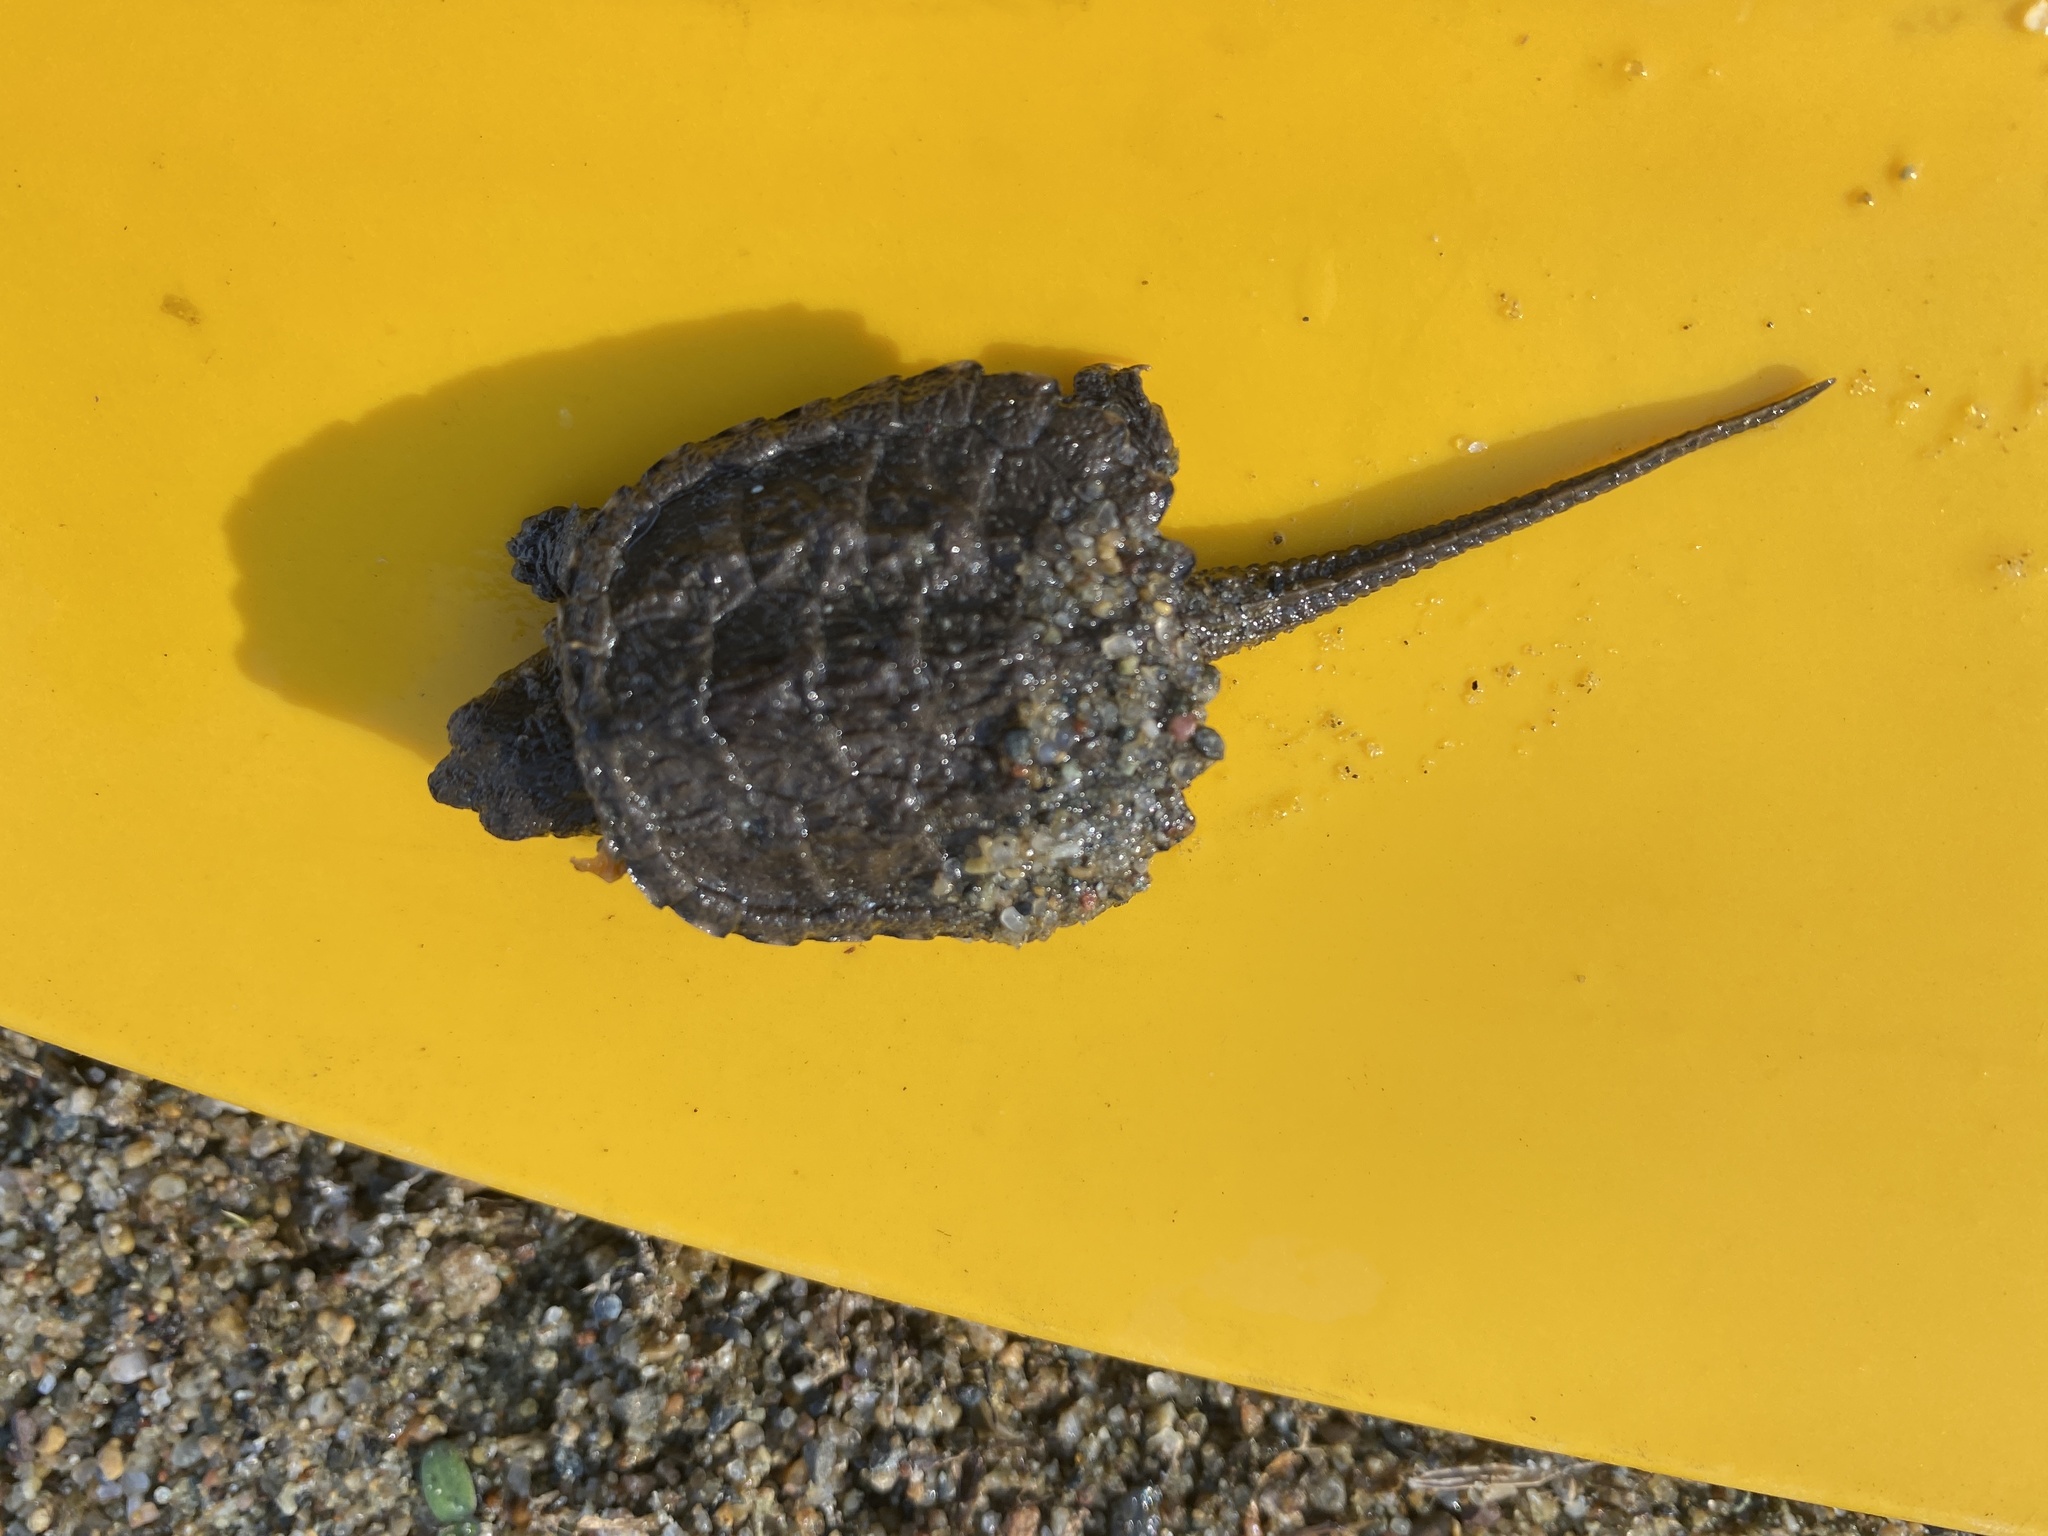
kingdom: Animalia
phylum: Chordata
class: Testudines
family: Chelydridae
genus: Chelydra
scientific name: Chelydra serpentina
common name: Common snapping turtle
